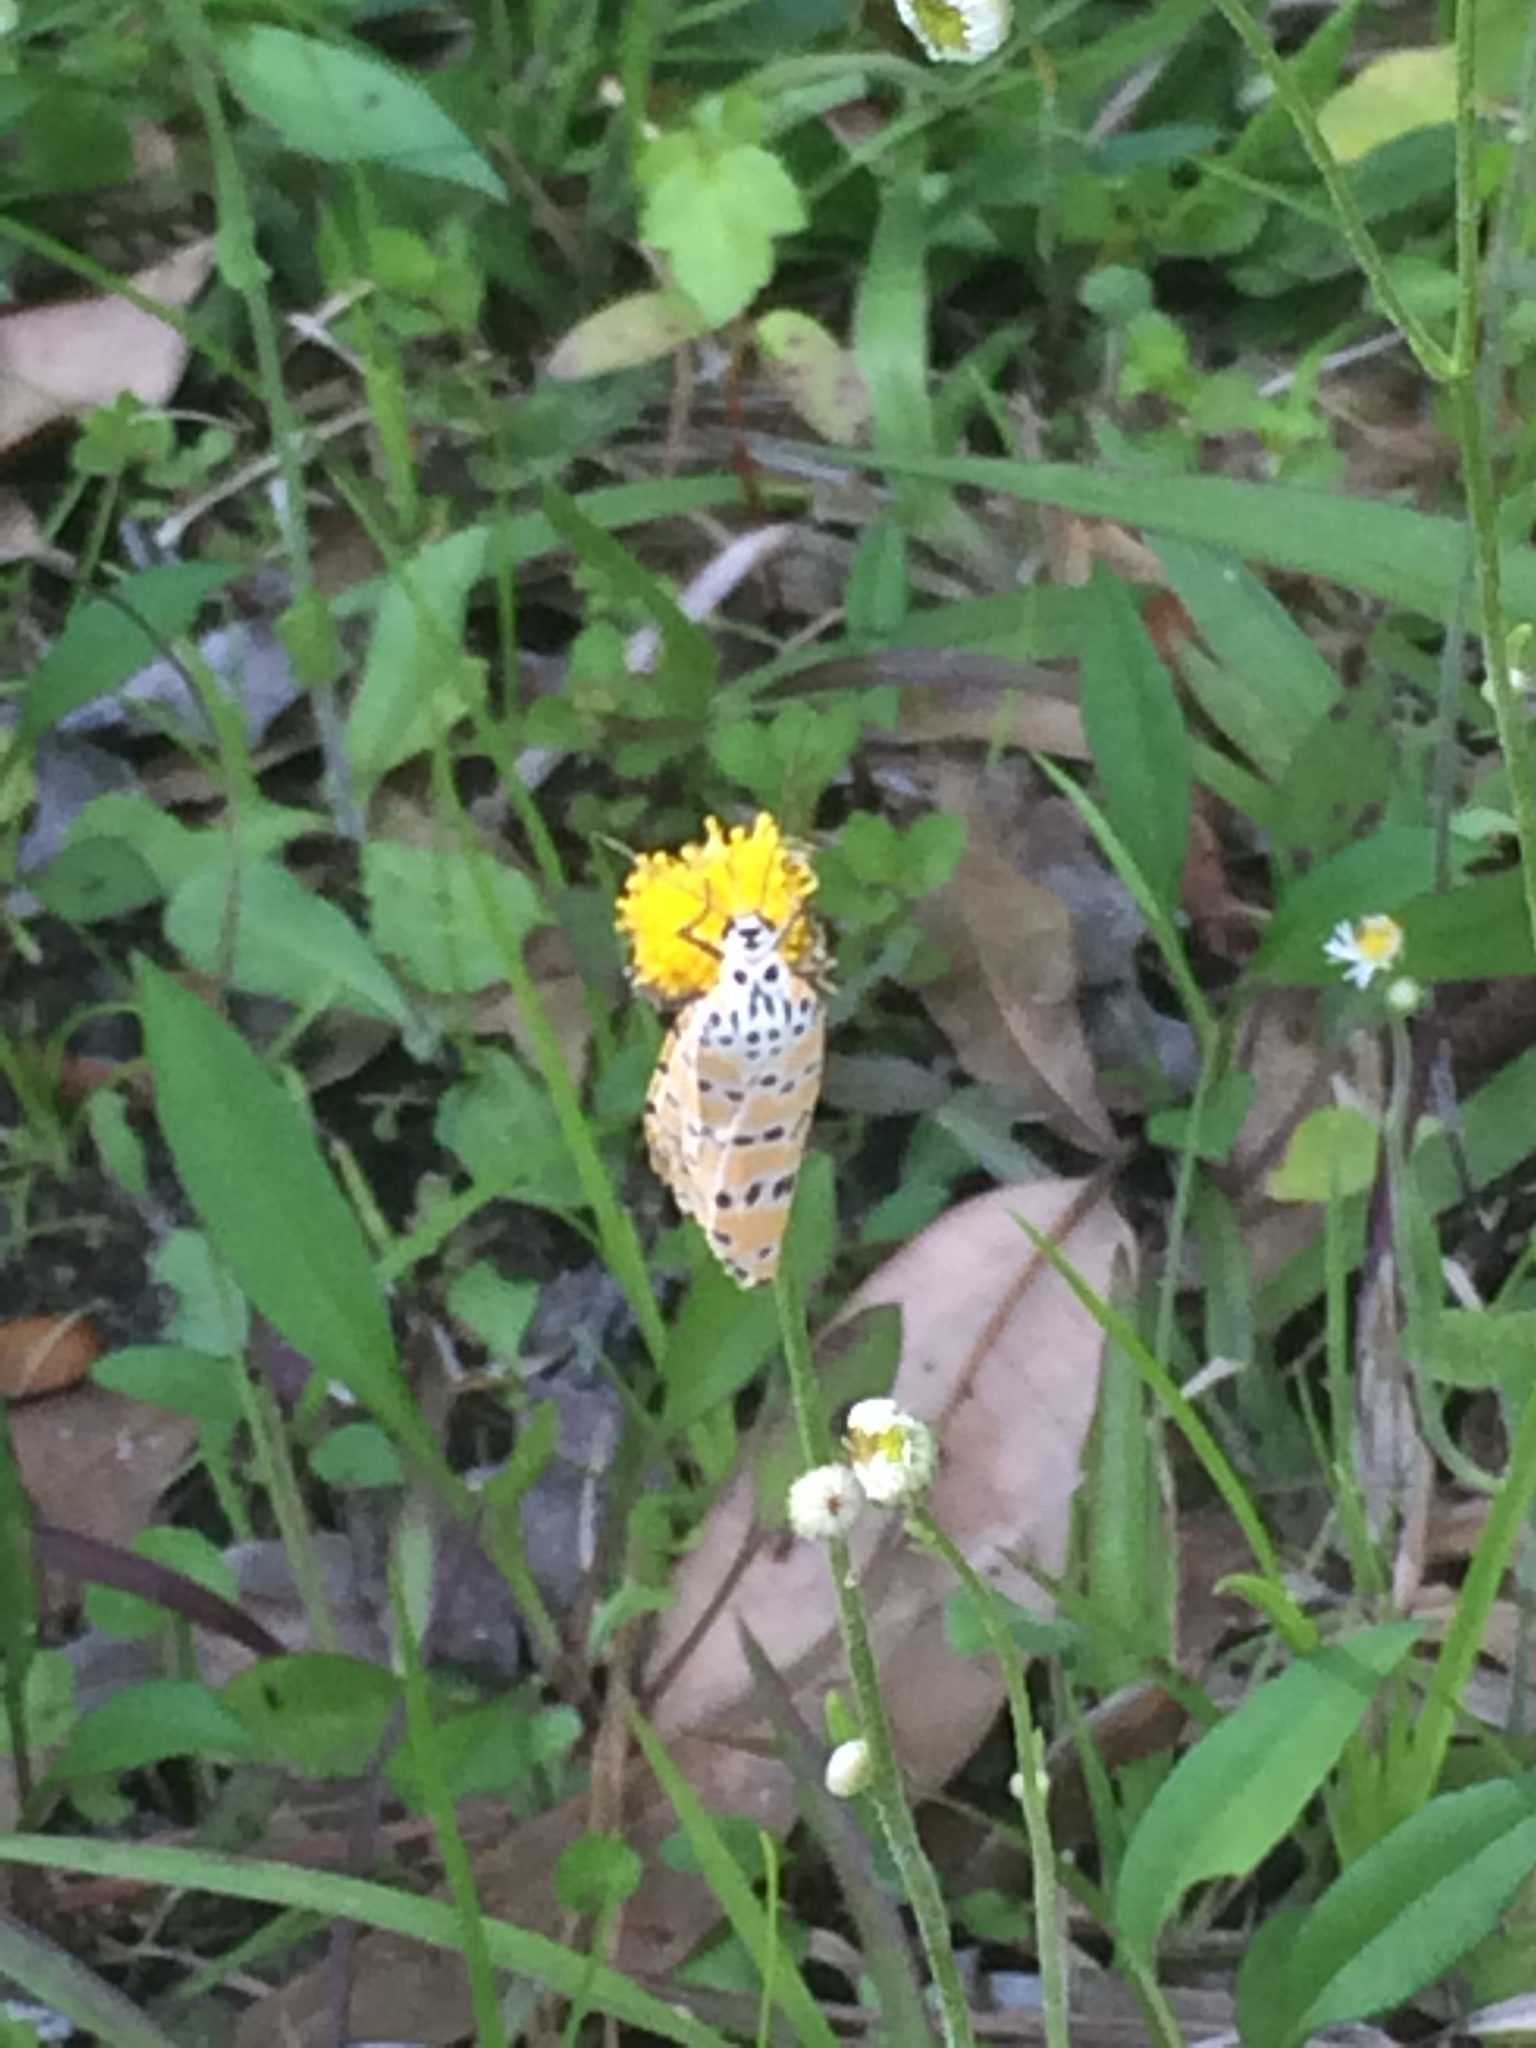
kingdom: Animalia
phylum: Arthropoda
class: Insecta
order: Lepidoptera
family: Erebidae
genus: Utetheisa
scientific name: Utetheisa ornatrix
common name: Beautiful utetheisa
